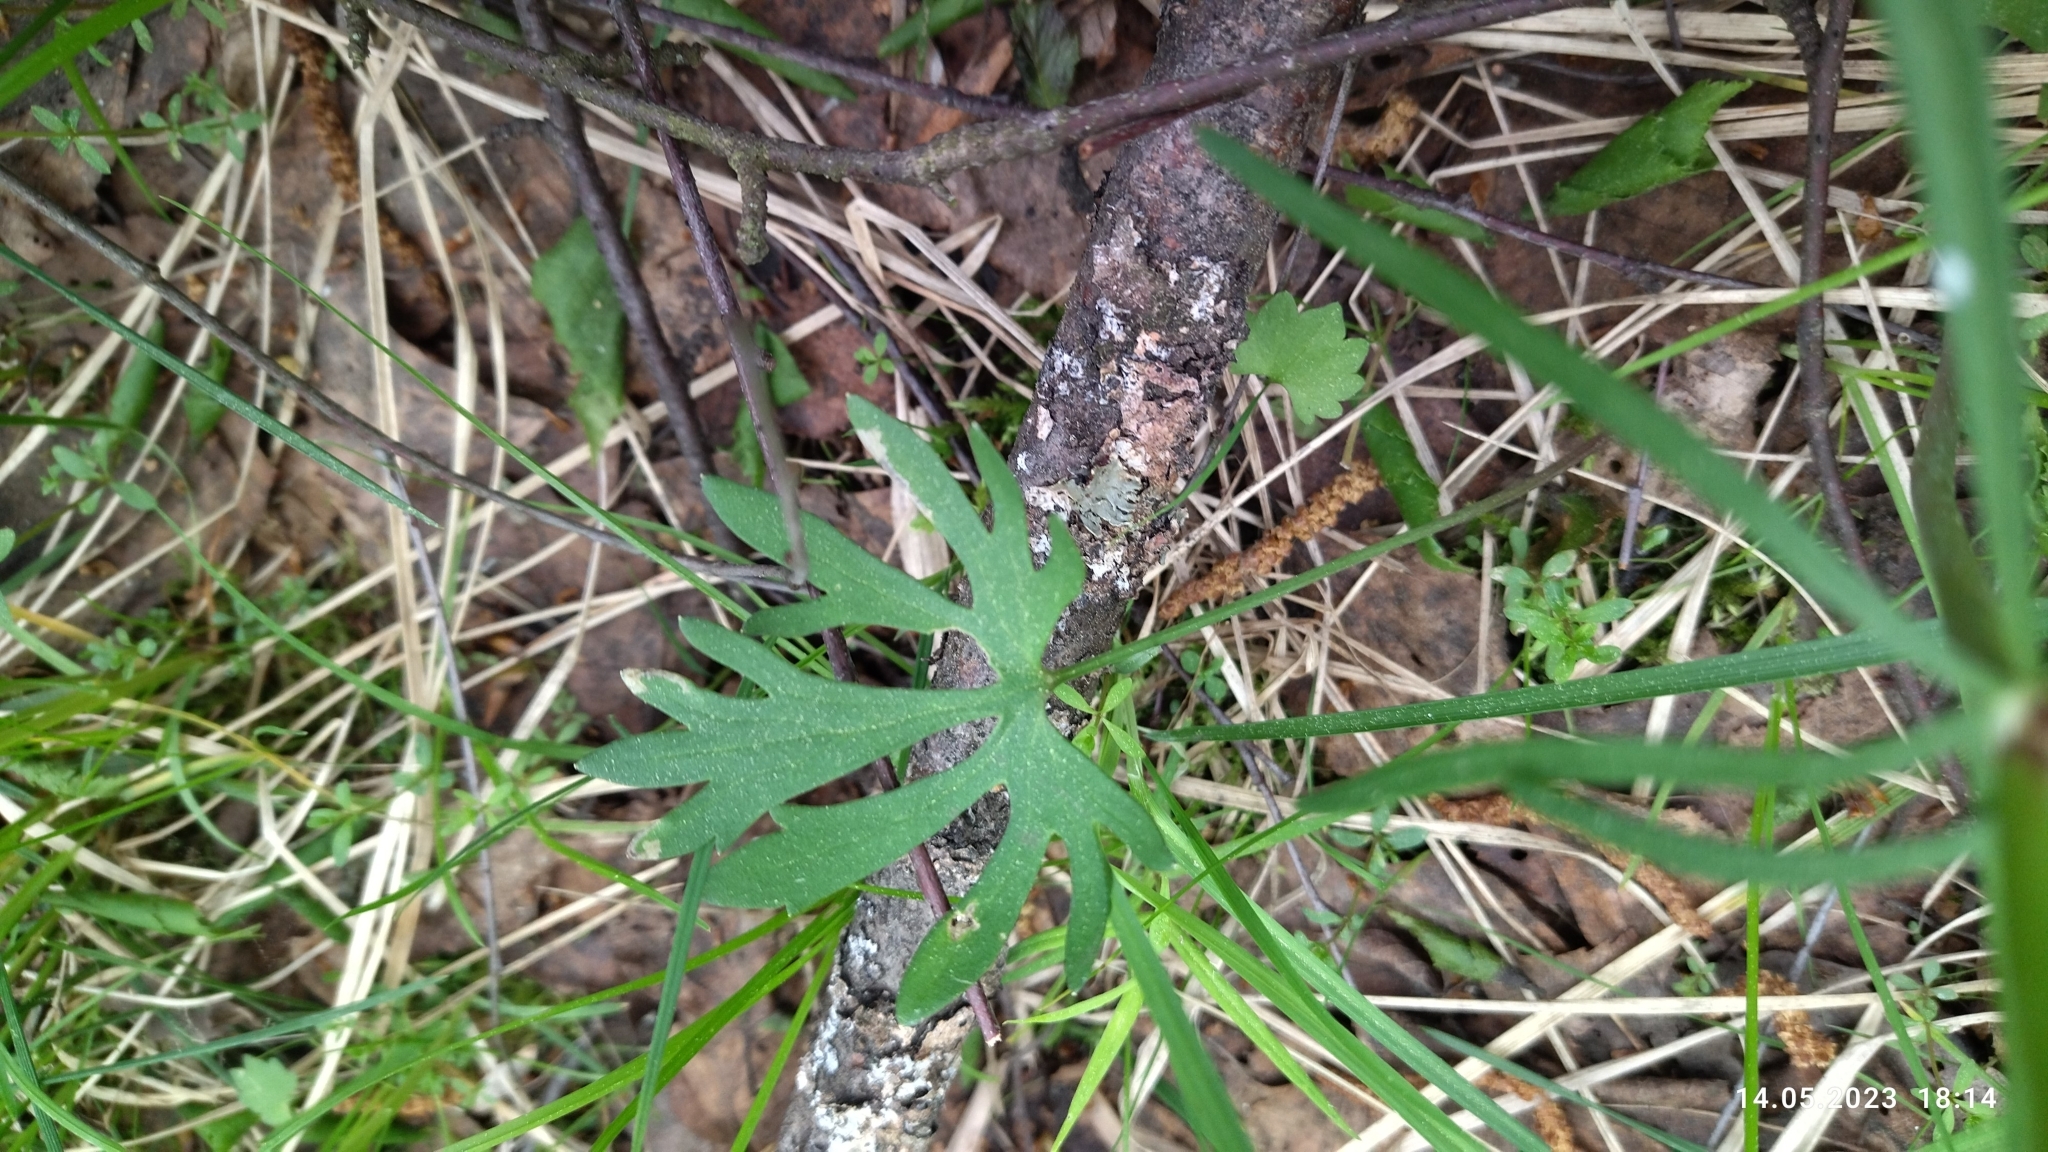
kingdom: Plantae
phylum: Tracheophyta
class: Magnoliopsida
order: Ranunculales
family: Ranunculaceae
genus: Ranunculus
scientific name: Ranunculus auricomus
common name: Goldilocks buttercup
